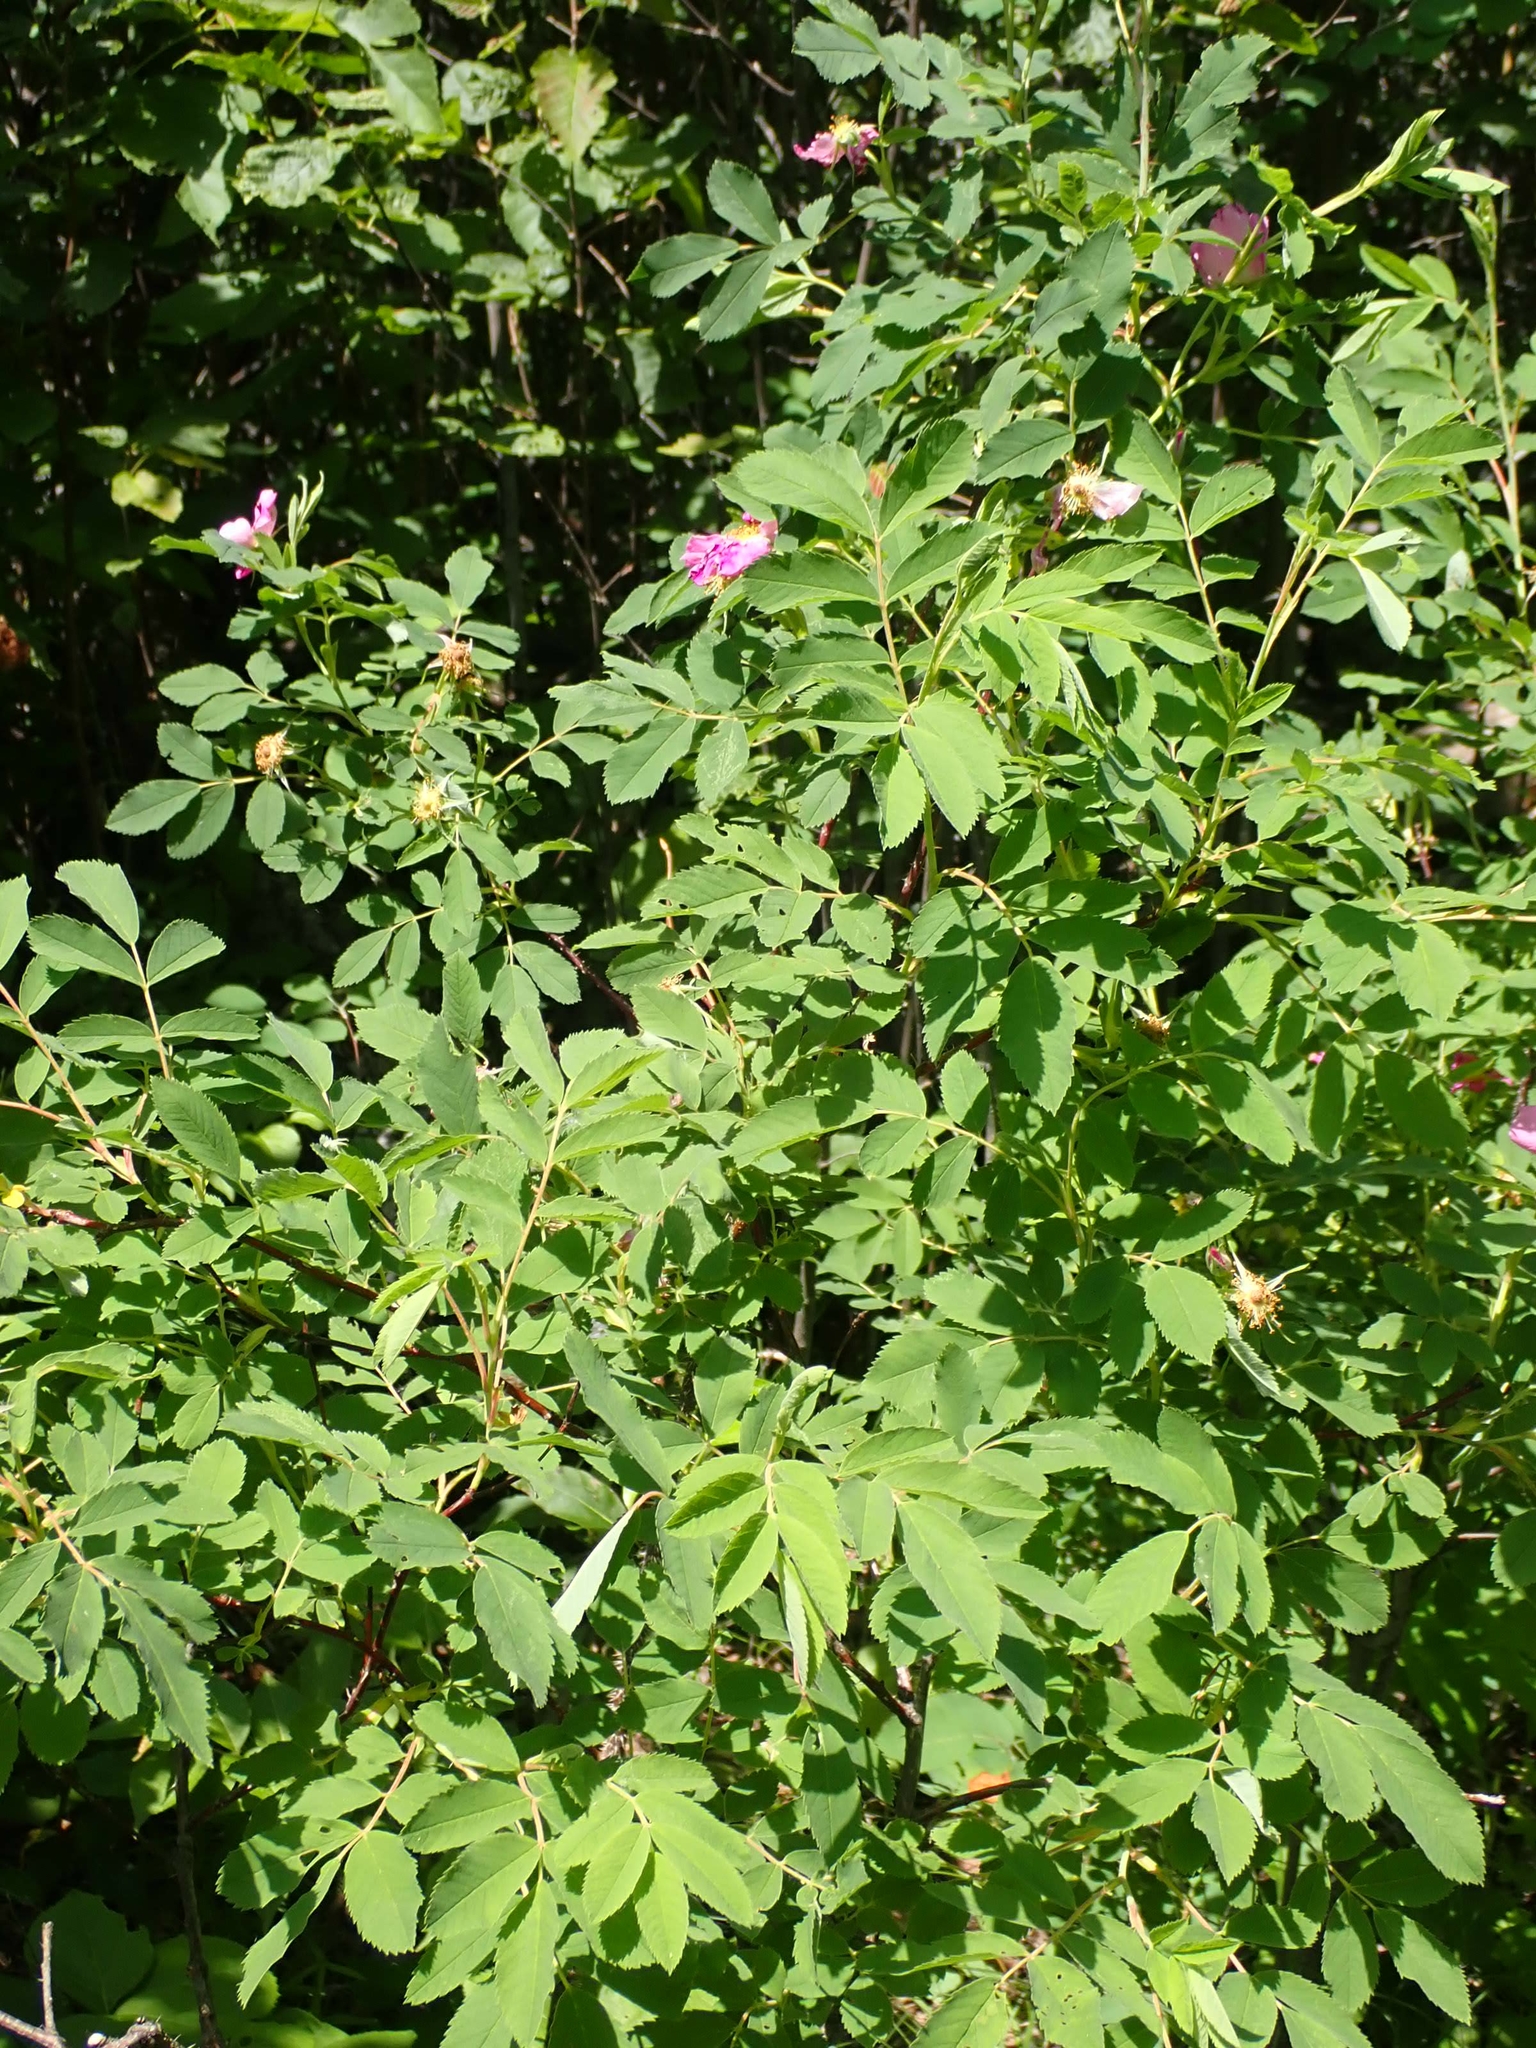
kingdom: Plantae
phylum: Tracheophyta
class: Magnoliopsida
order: Rosales
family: Rosaceae
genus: Rosa
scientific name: Rosa woodsii
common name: Woods's rose
